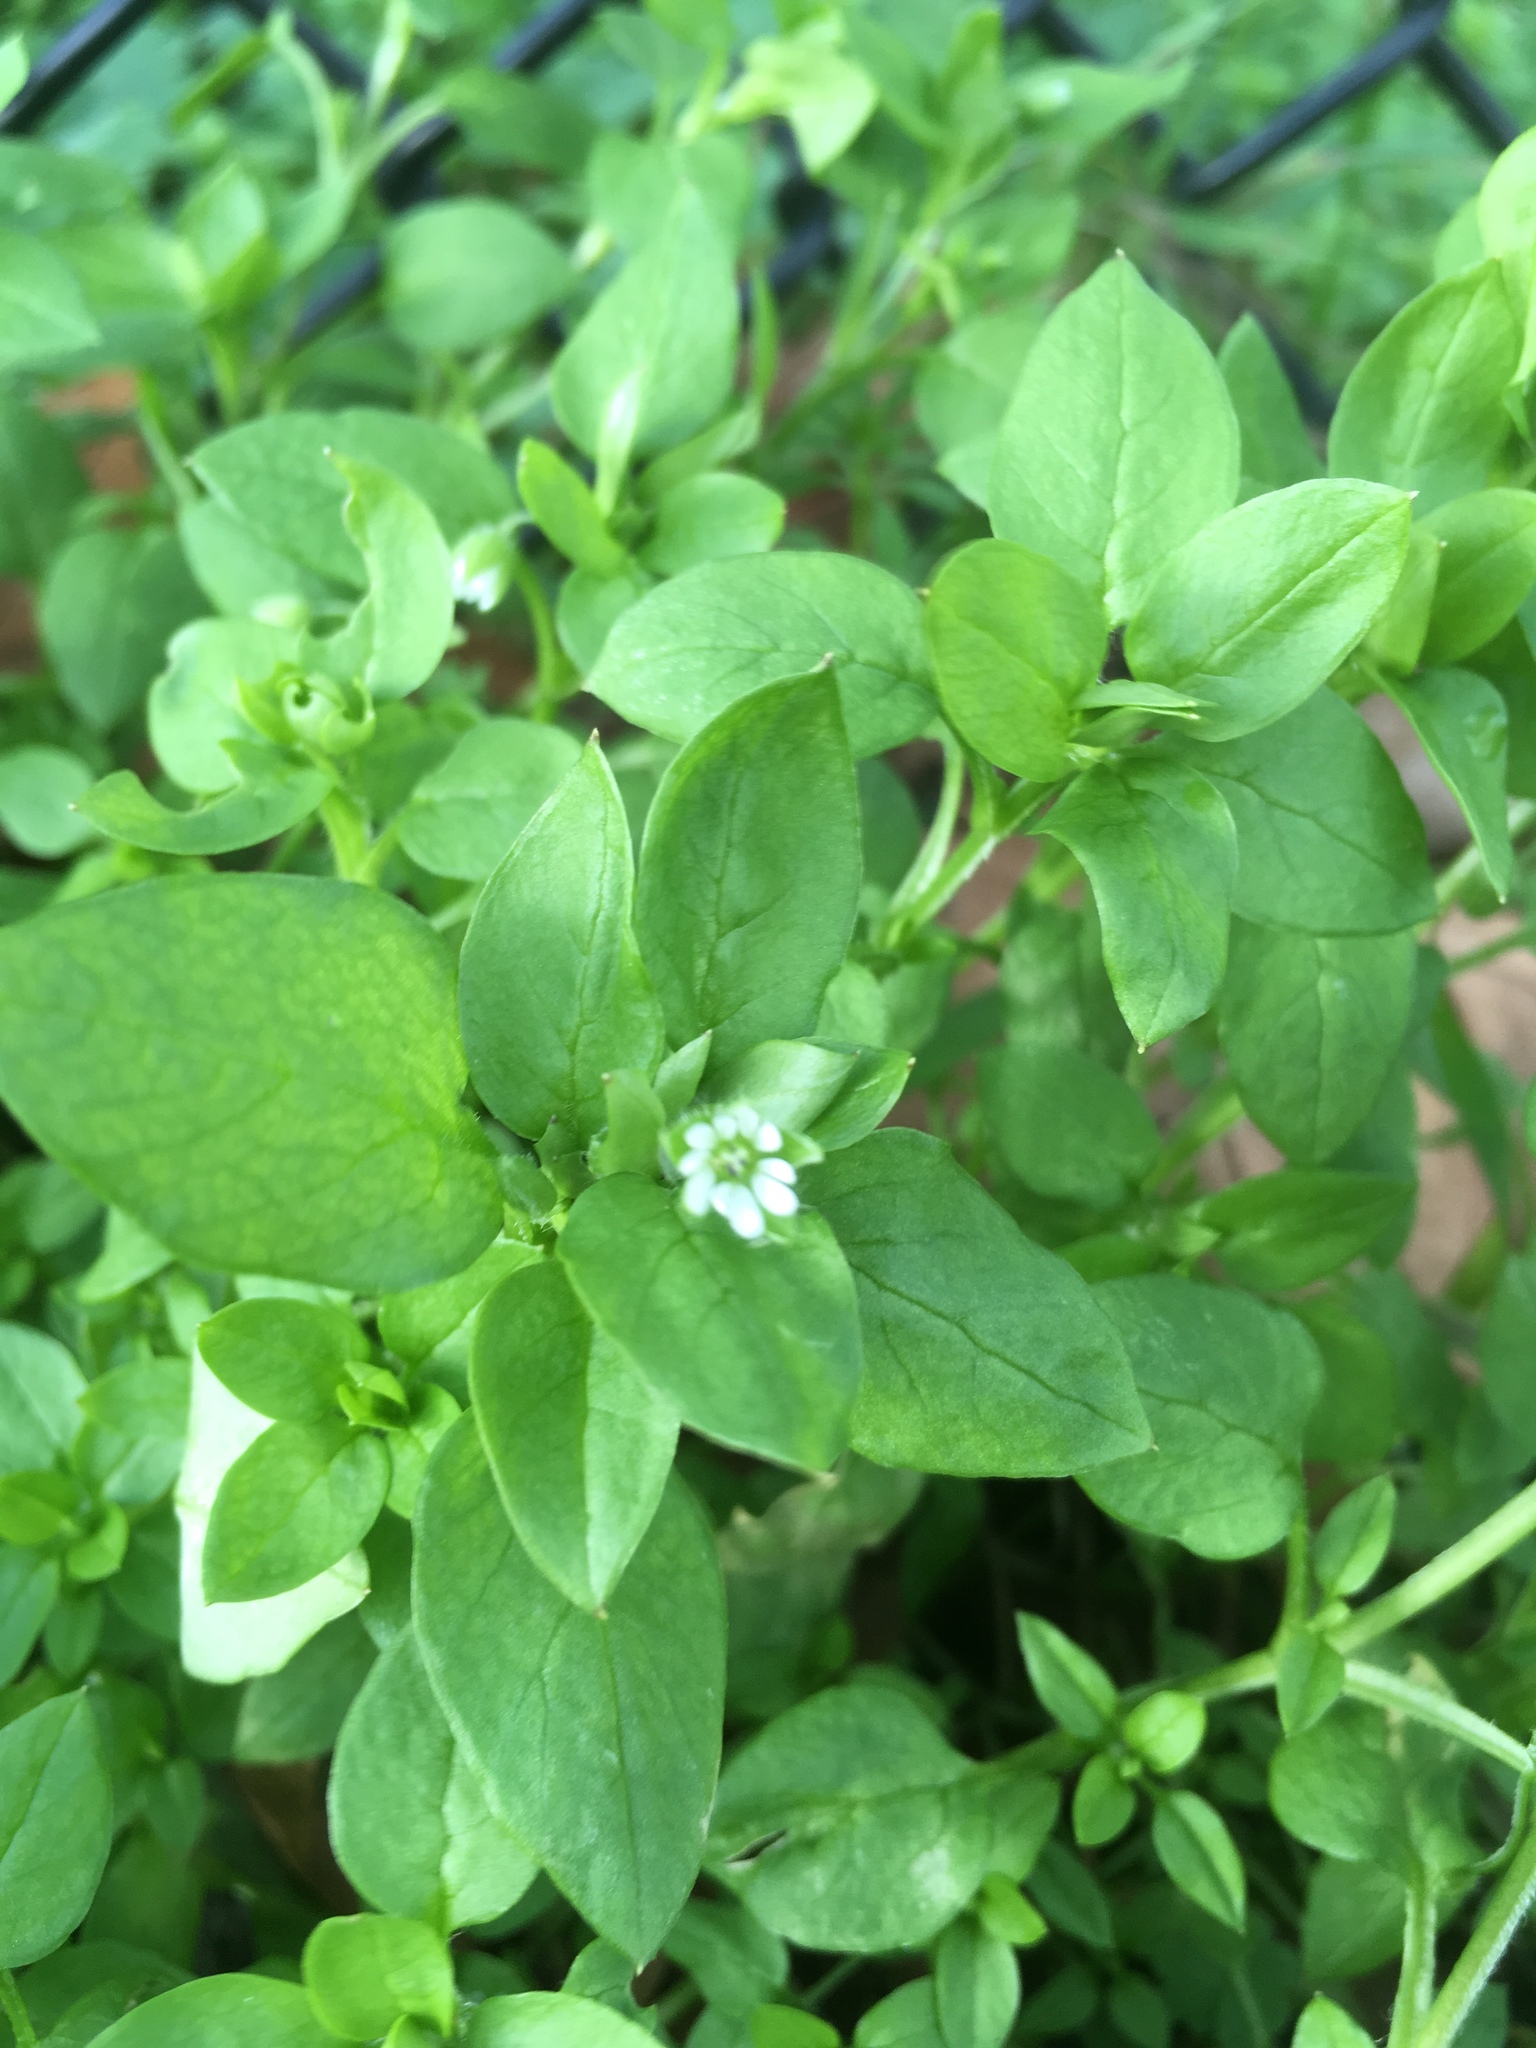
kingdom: Plantae
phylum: Tracheophyta
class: Magnoliopsida
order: Caryophyllales
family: Caryophyllaceae
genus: Stellaria
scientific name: Stellaria media
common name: Common chickweed
